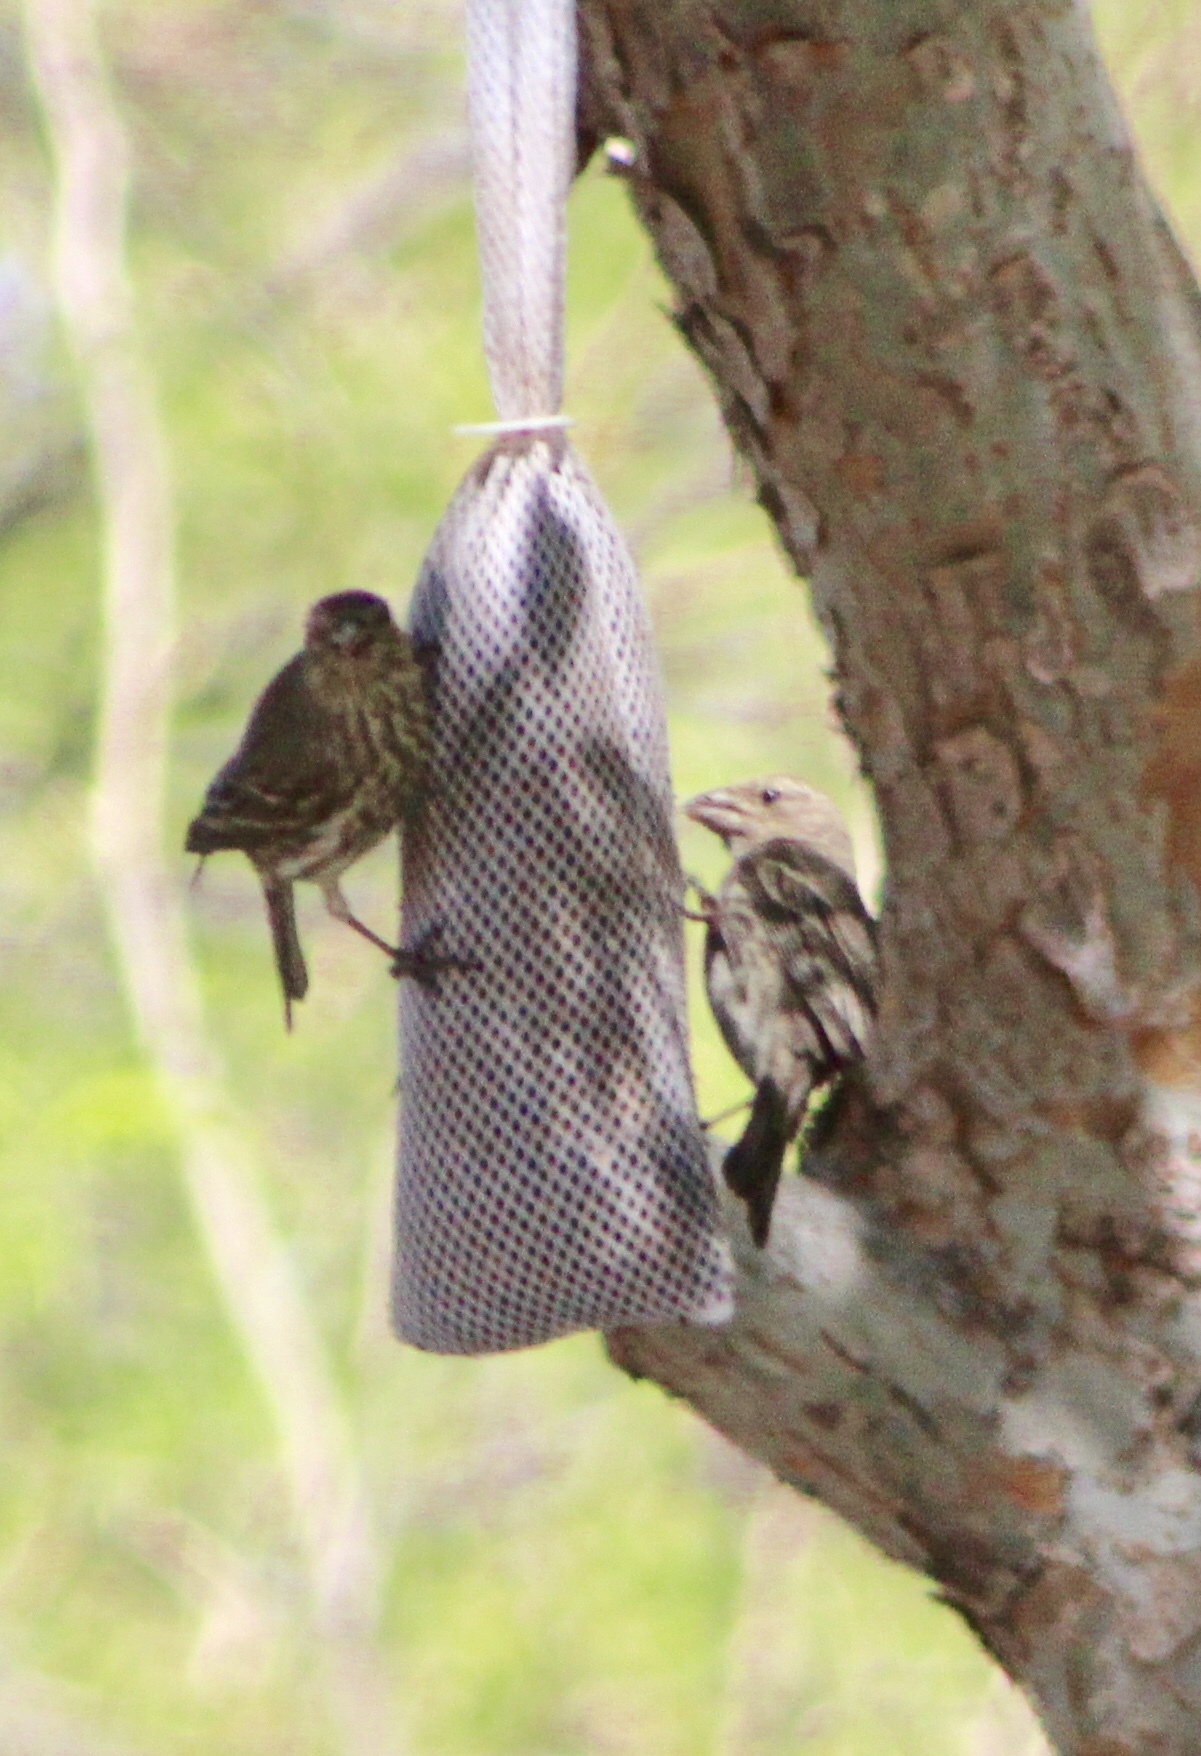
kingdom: Animalia
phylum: Chordata
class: Aves
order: Passeriformes
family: Fringillidae
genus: Haemorhous
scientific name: Haemorhous mexicanus
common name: House finch
